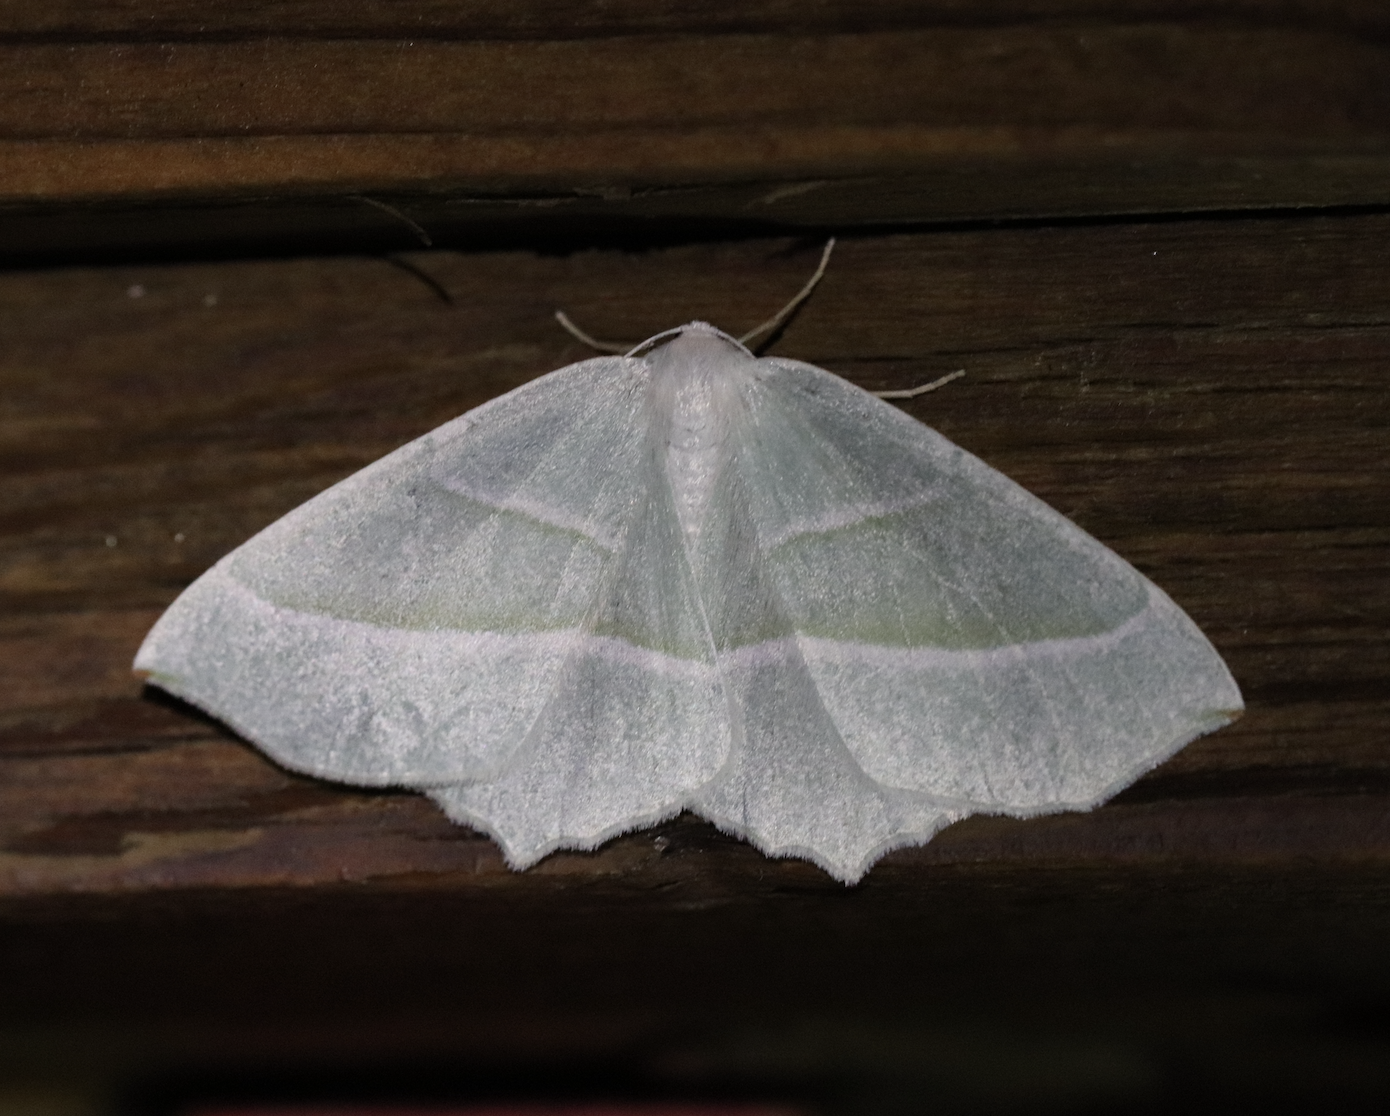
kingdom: Animalia
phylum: Arthropoda
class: Insecta
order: Lepidoptera
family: Geometridae
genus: Campaea
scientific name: Campaea margaritaria
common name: Light emerald
